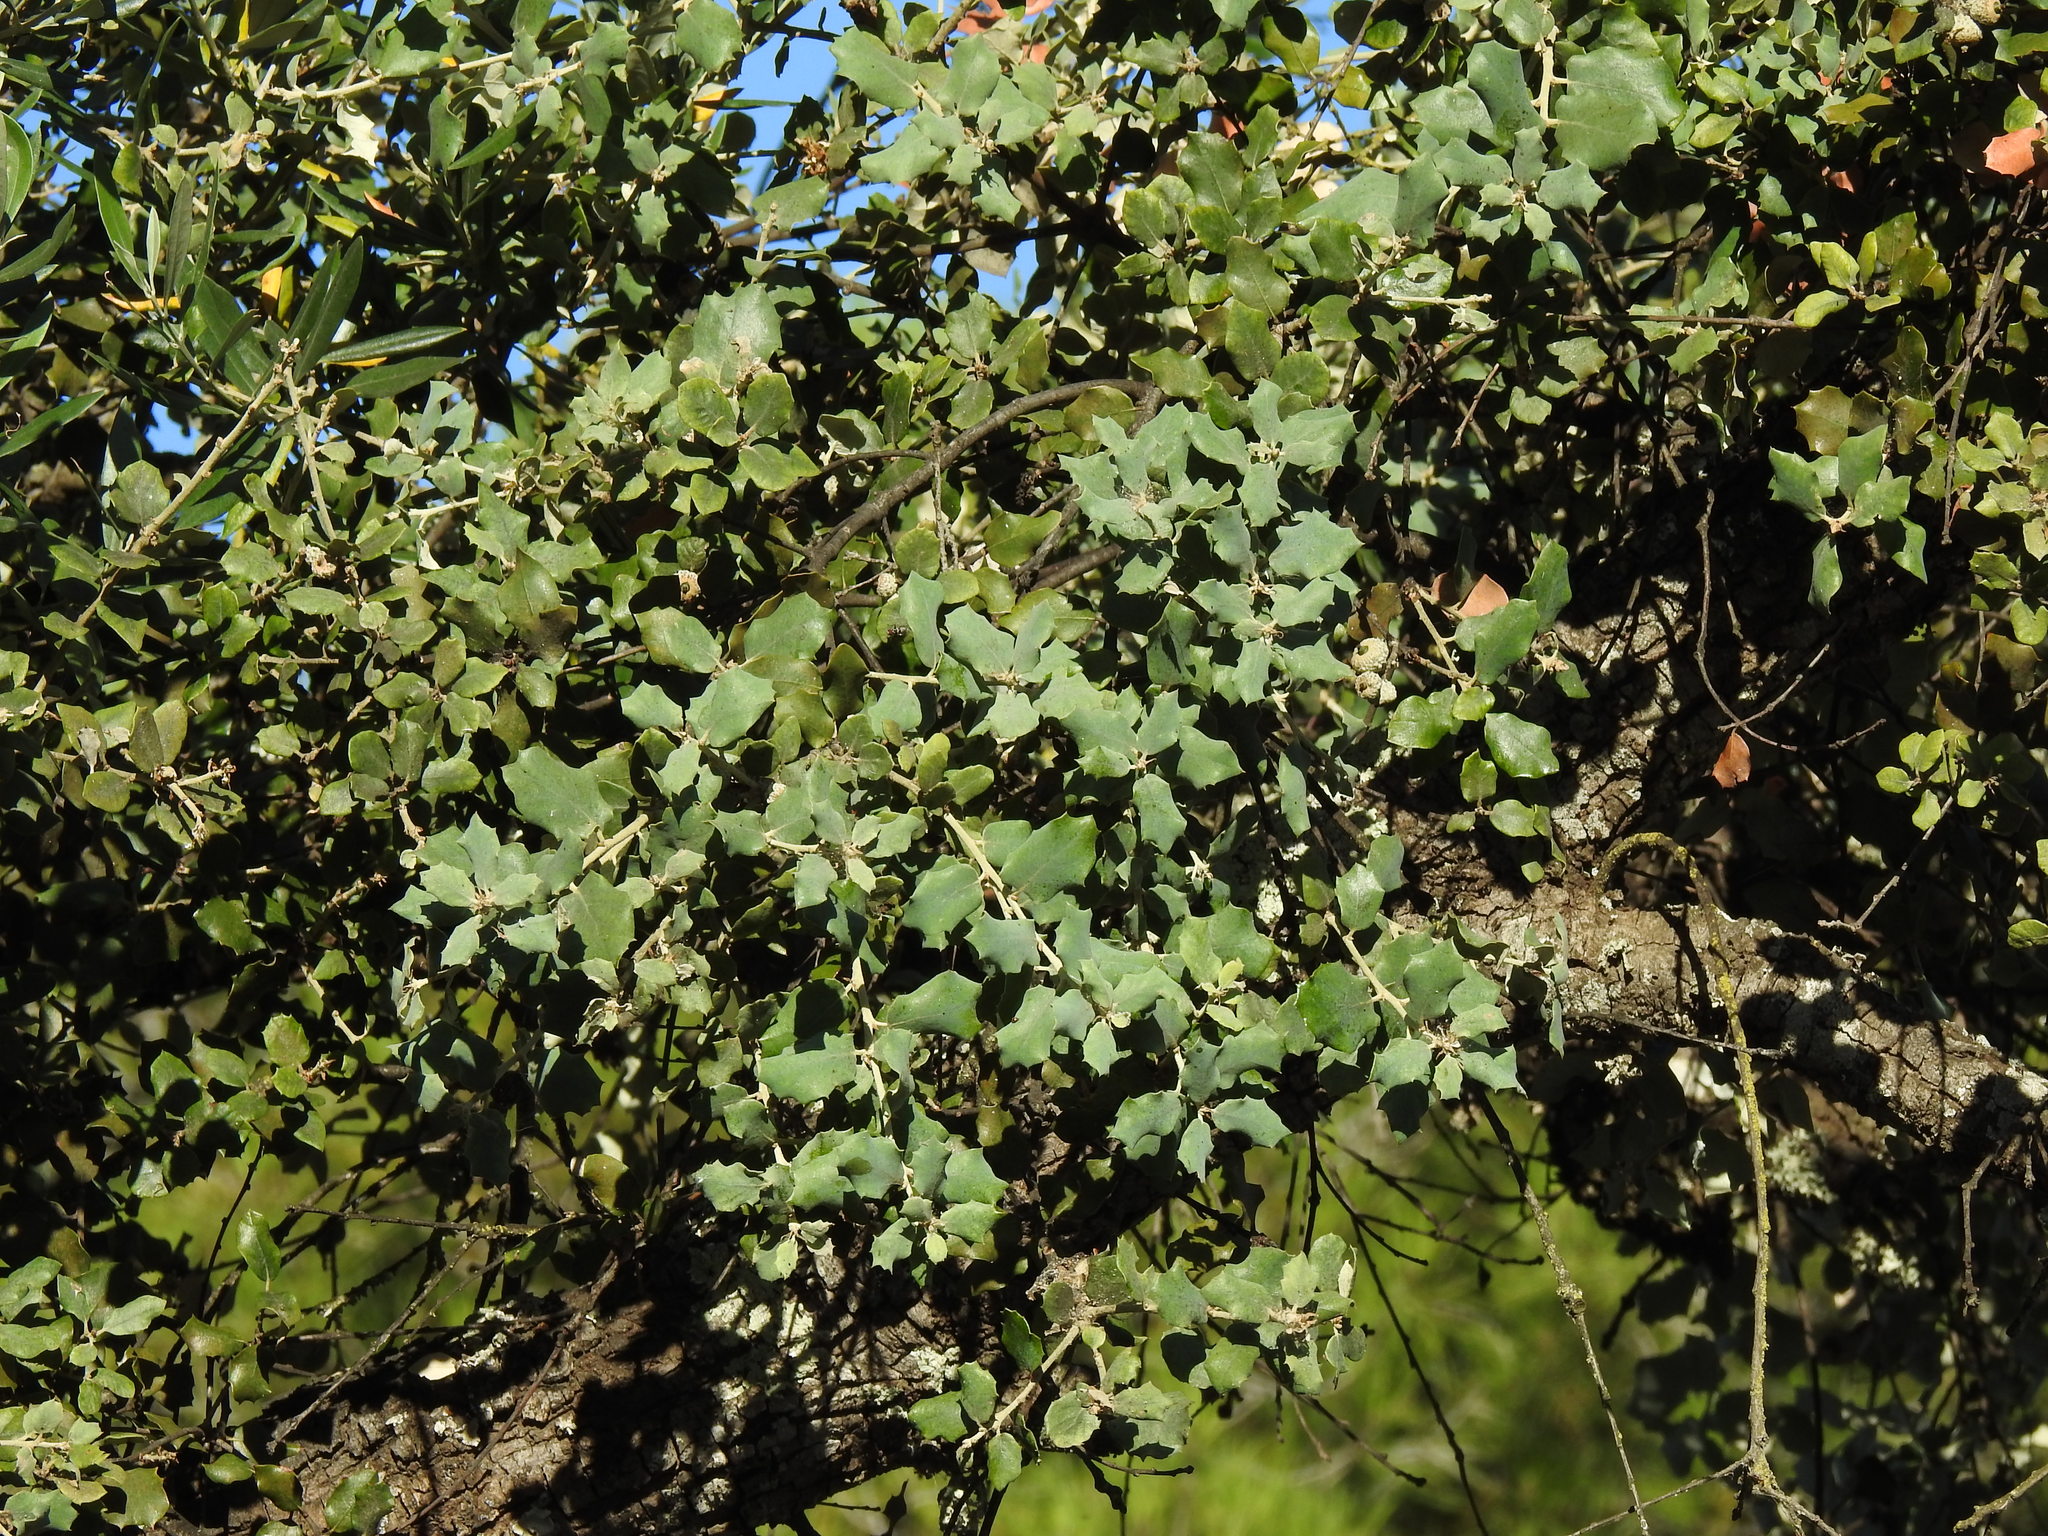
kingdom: Plantae
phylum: Tracheophyta
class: Magnoliopsida
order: Fagales
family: Fagaceae
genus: Quercus
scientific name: Quercus rotundifolia
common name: Holm oak
